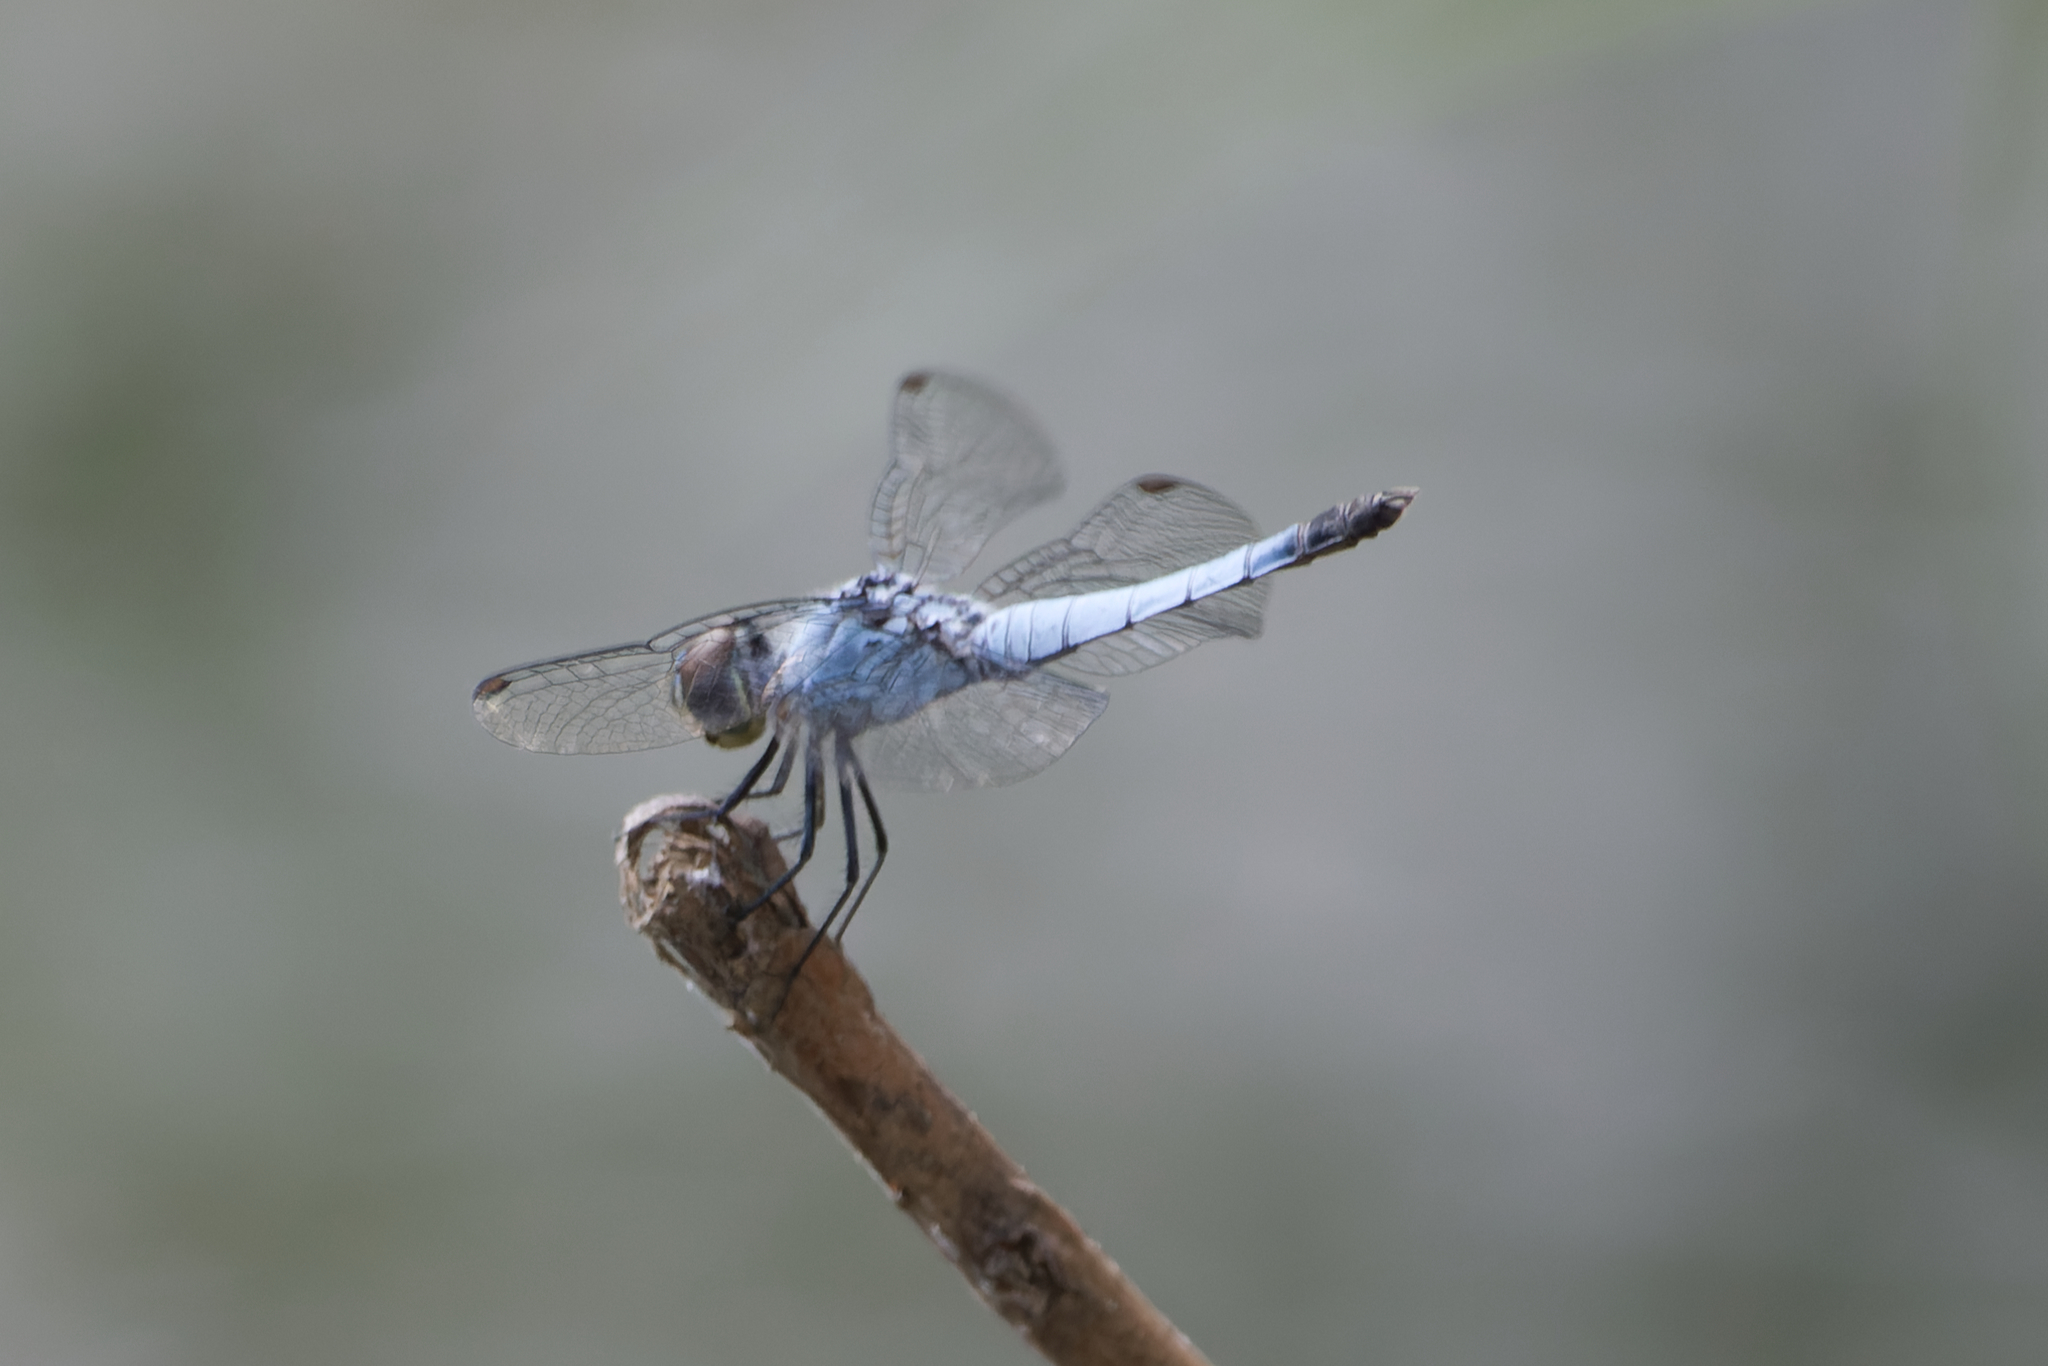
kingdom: Animalia
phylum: Arthropoda
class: Insecta
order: Odonata
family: Libellulidae
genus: Brachydiplax
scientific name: Brachydiplax denticauda
